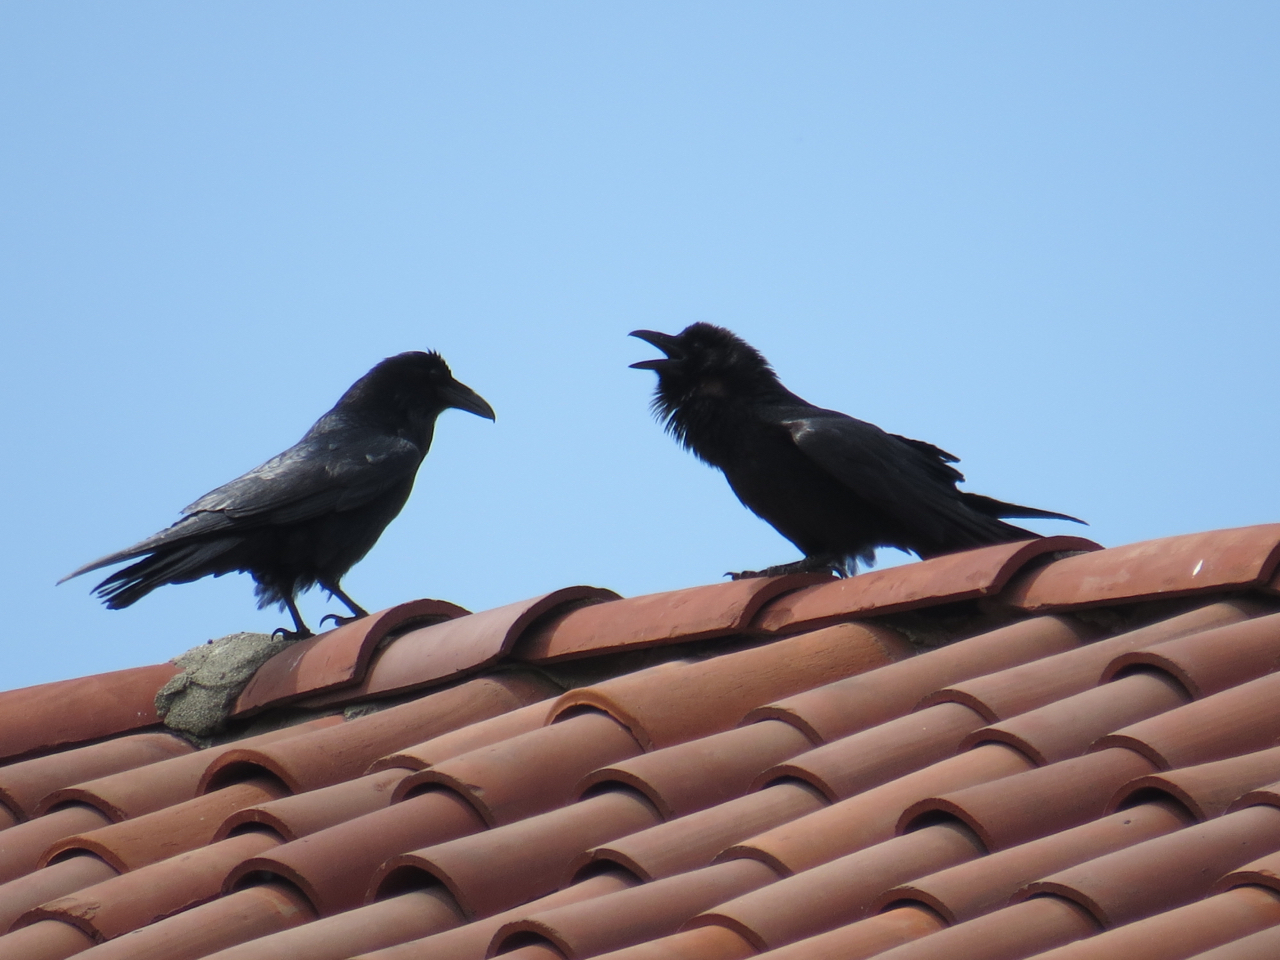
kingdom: Animalia
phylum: Chordata
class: Aves
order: Passeriformes
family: Corvidae
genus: Corvus
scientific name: Corvus corax
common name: Common raven
